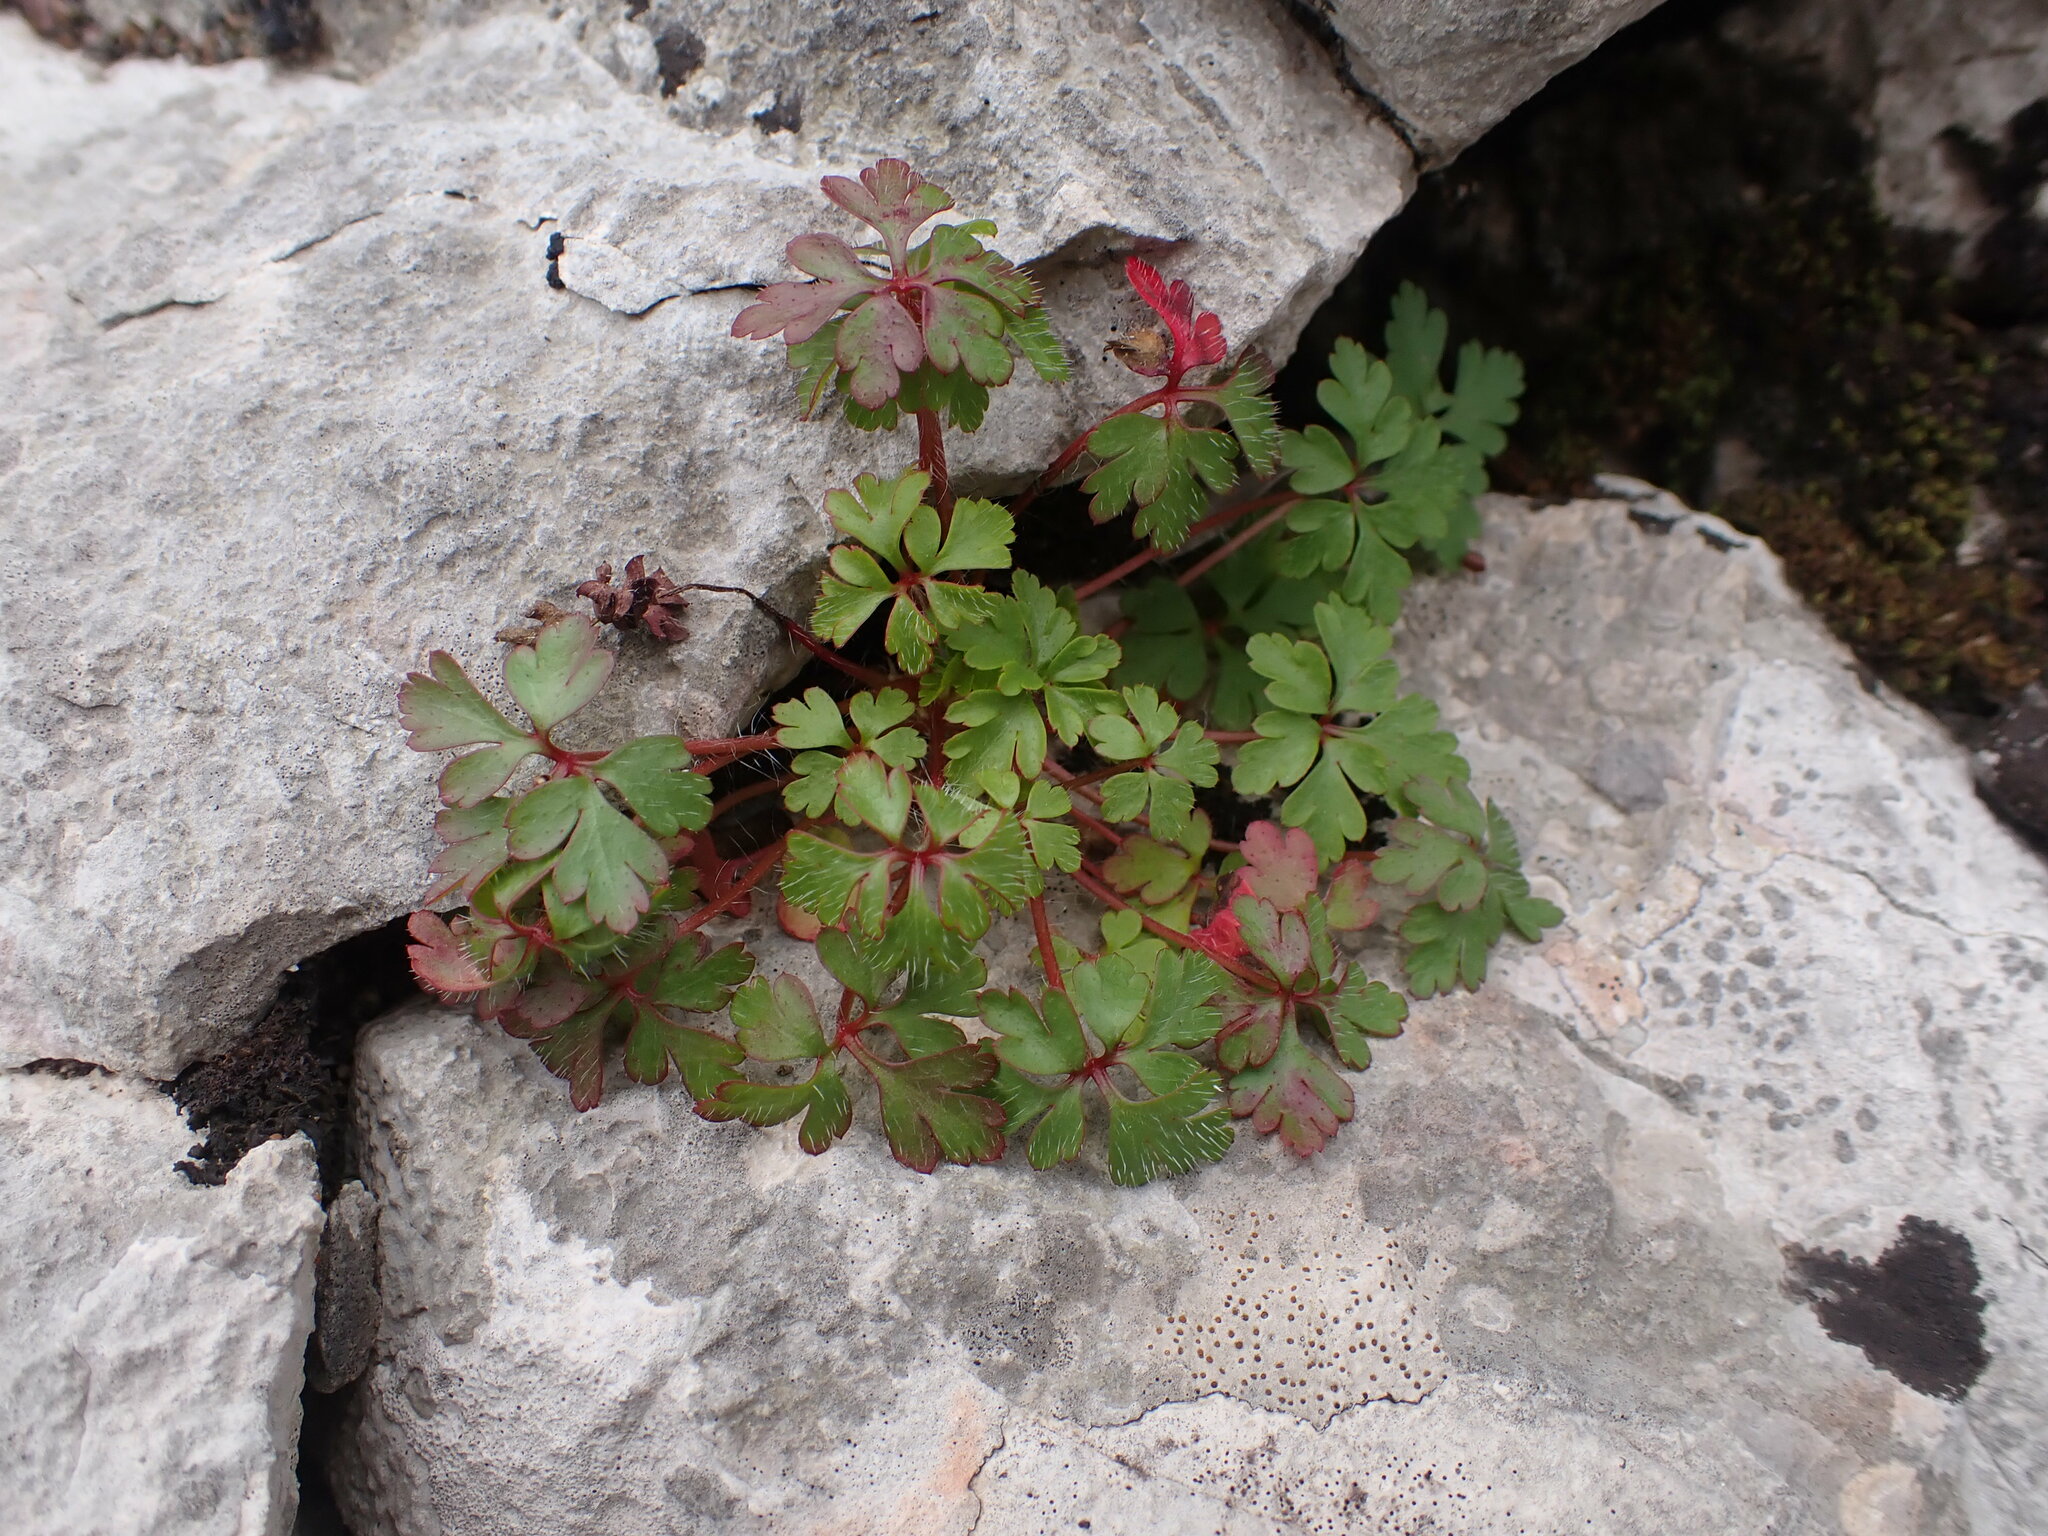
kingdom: Plantae
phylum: Tracheophyta
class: Magnoliopsida
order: Geraniales
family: Geraniaceae
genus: Geranium
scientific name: Geranium purpureum
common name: Little-robin
